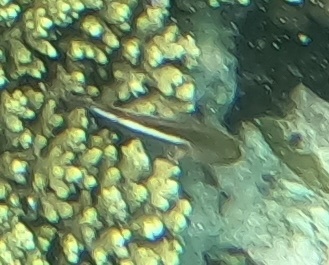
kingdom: Animalia
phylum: Chordata
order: Perciformes
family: Cirrhitidae
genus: Paracirrhites
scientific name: Paracirrhites arcatus
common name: Arc-eye hawkfish
